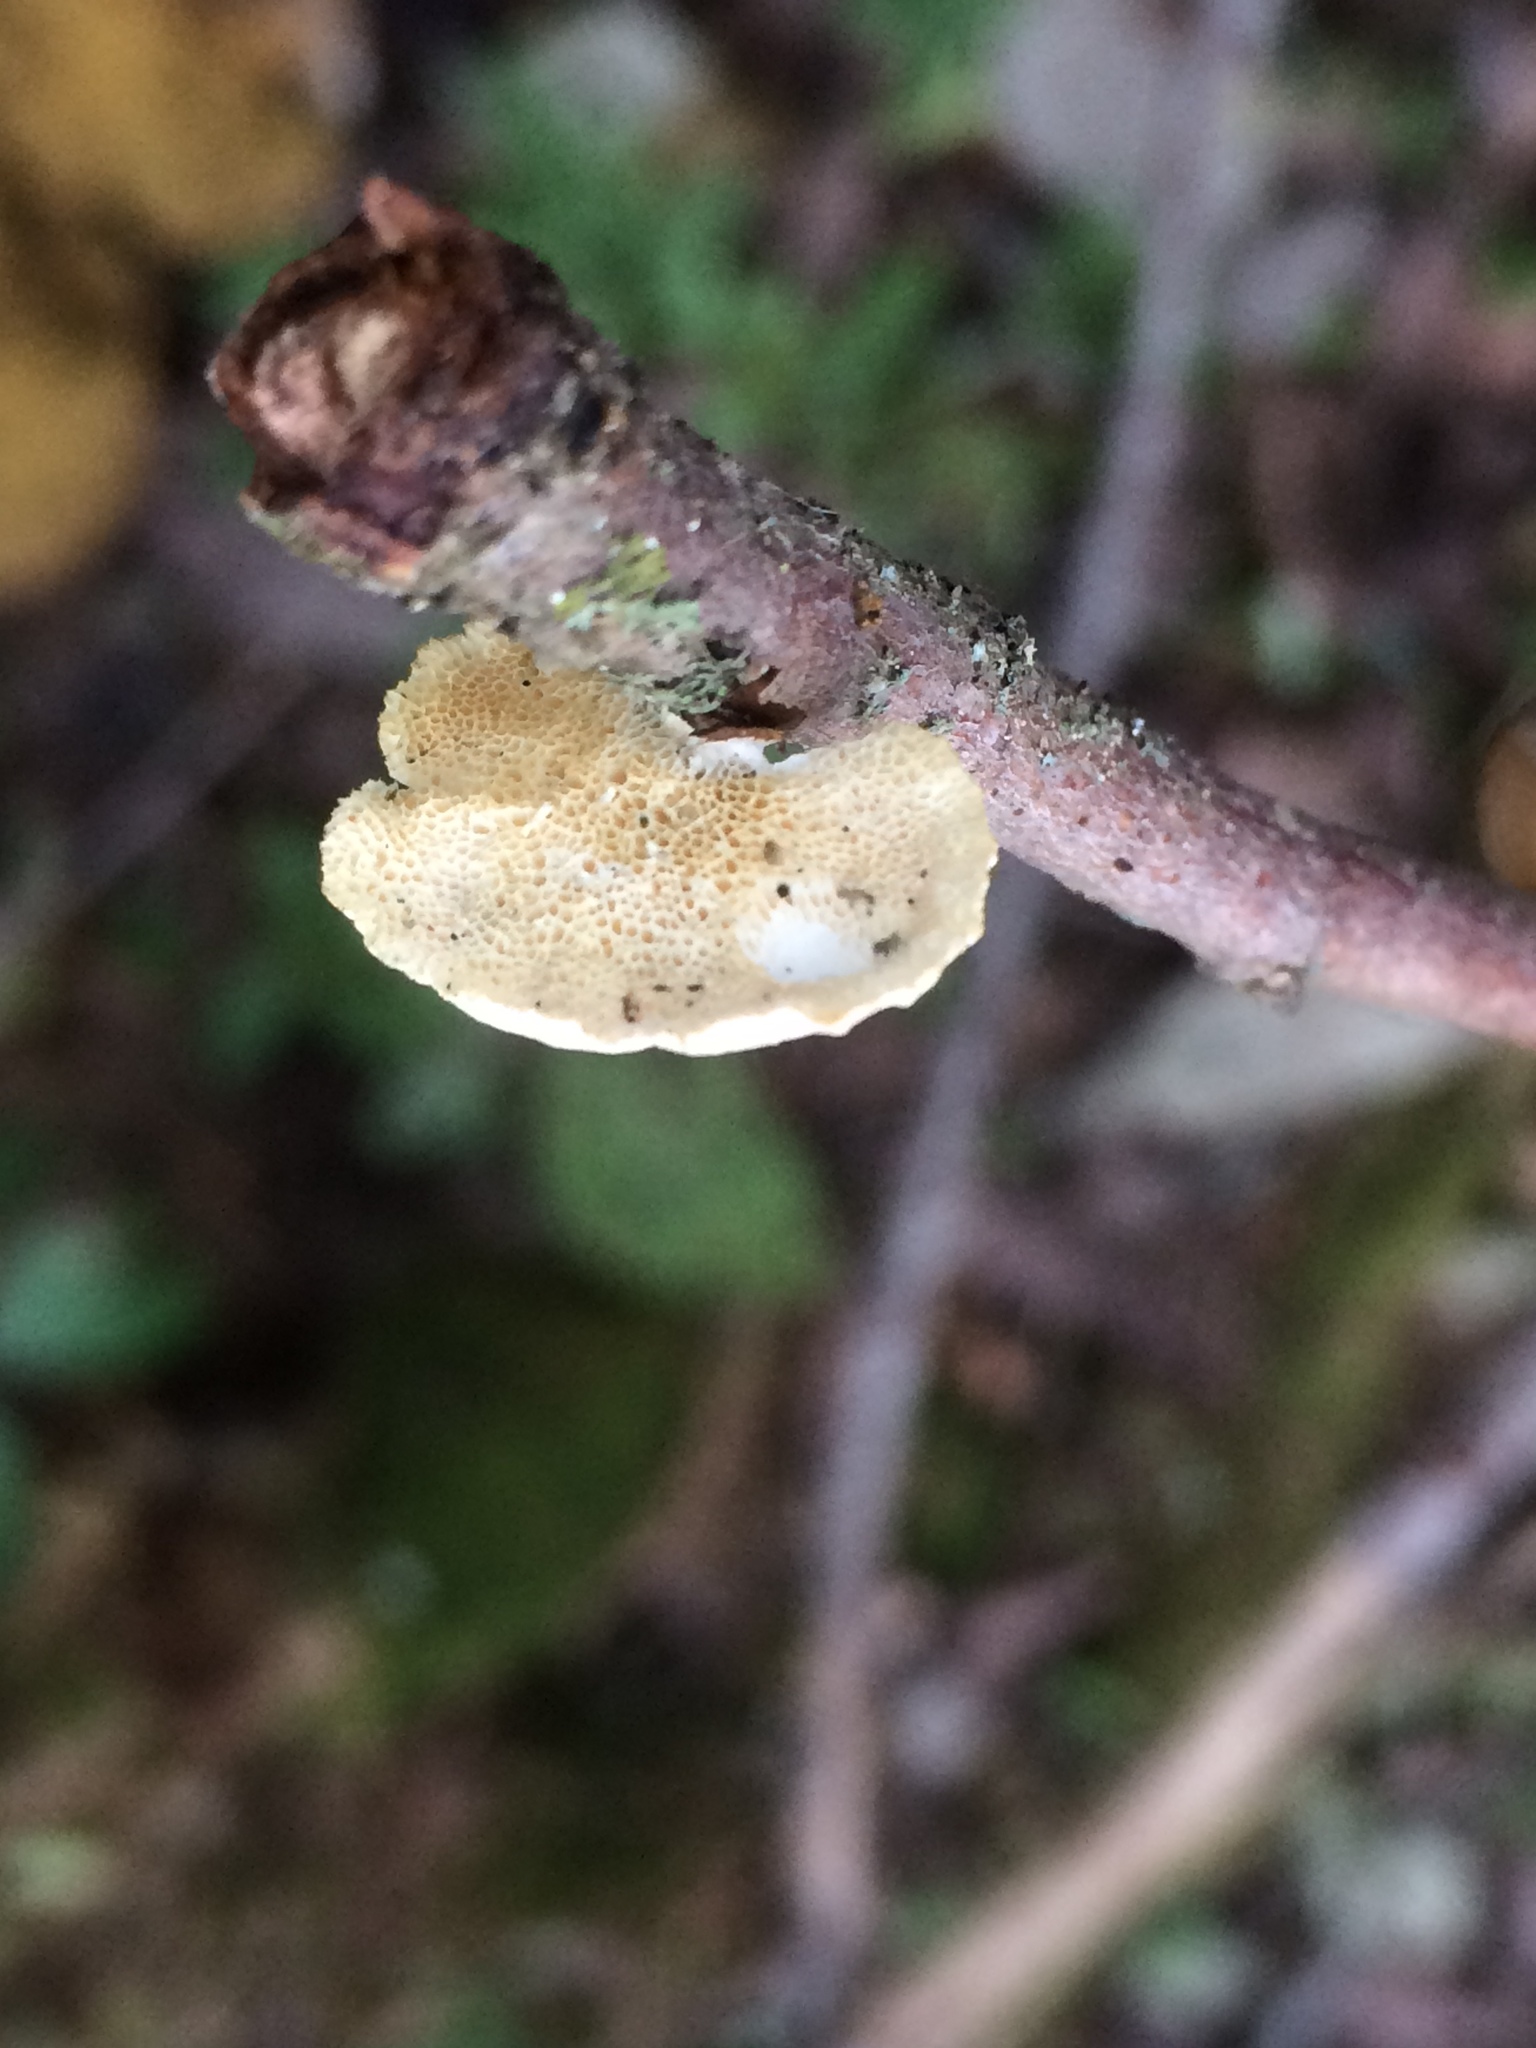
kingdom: Fungi
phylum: Basidiomycota
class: Agaricomycetes
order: Polyporales
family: Polyporaceae
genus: Poronidulus
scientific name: Poronidulus conchifer
